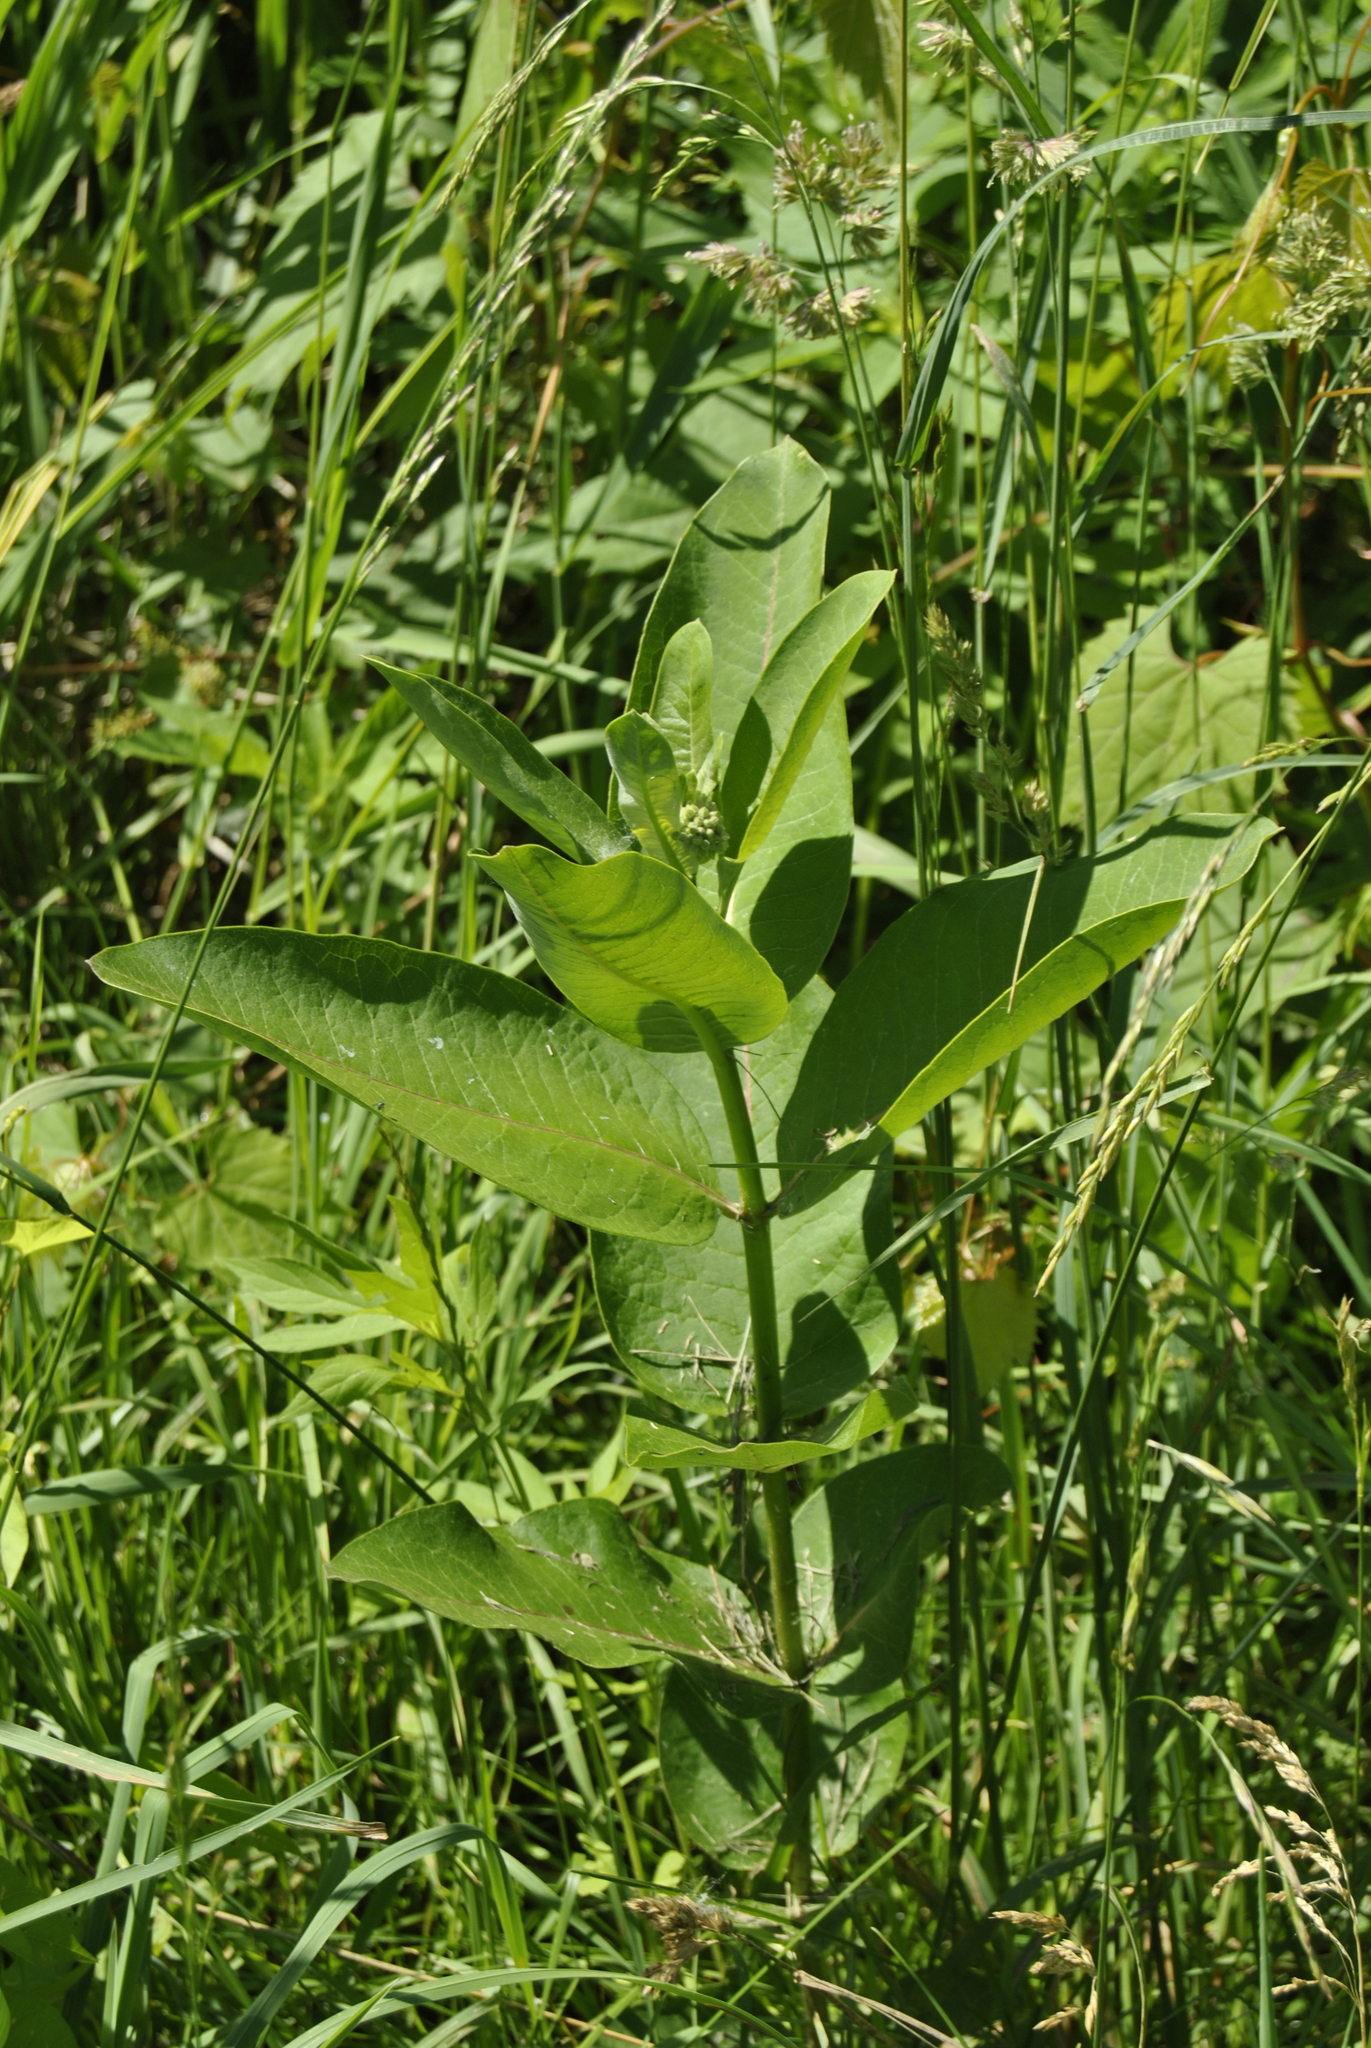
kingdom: Plantae
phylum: Tracheophyta
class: Magnoliopsida
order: Gentianales
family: Apocynaceae
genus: Asclepias
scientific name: Asclepias syriaca
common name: Common milkweed
